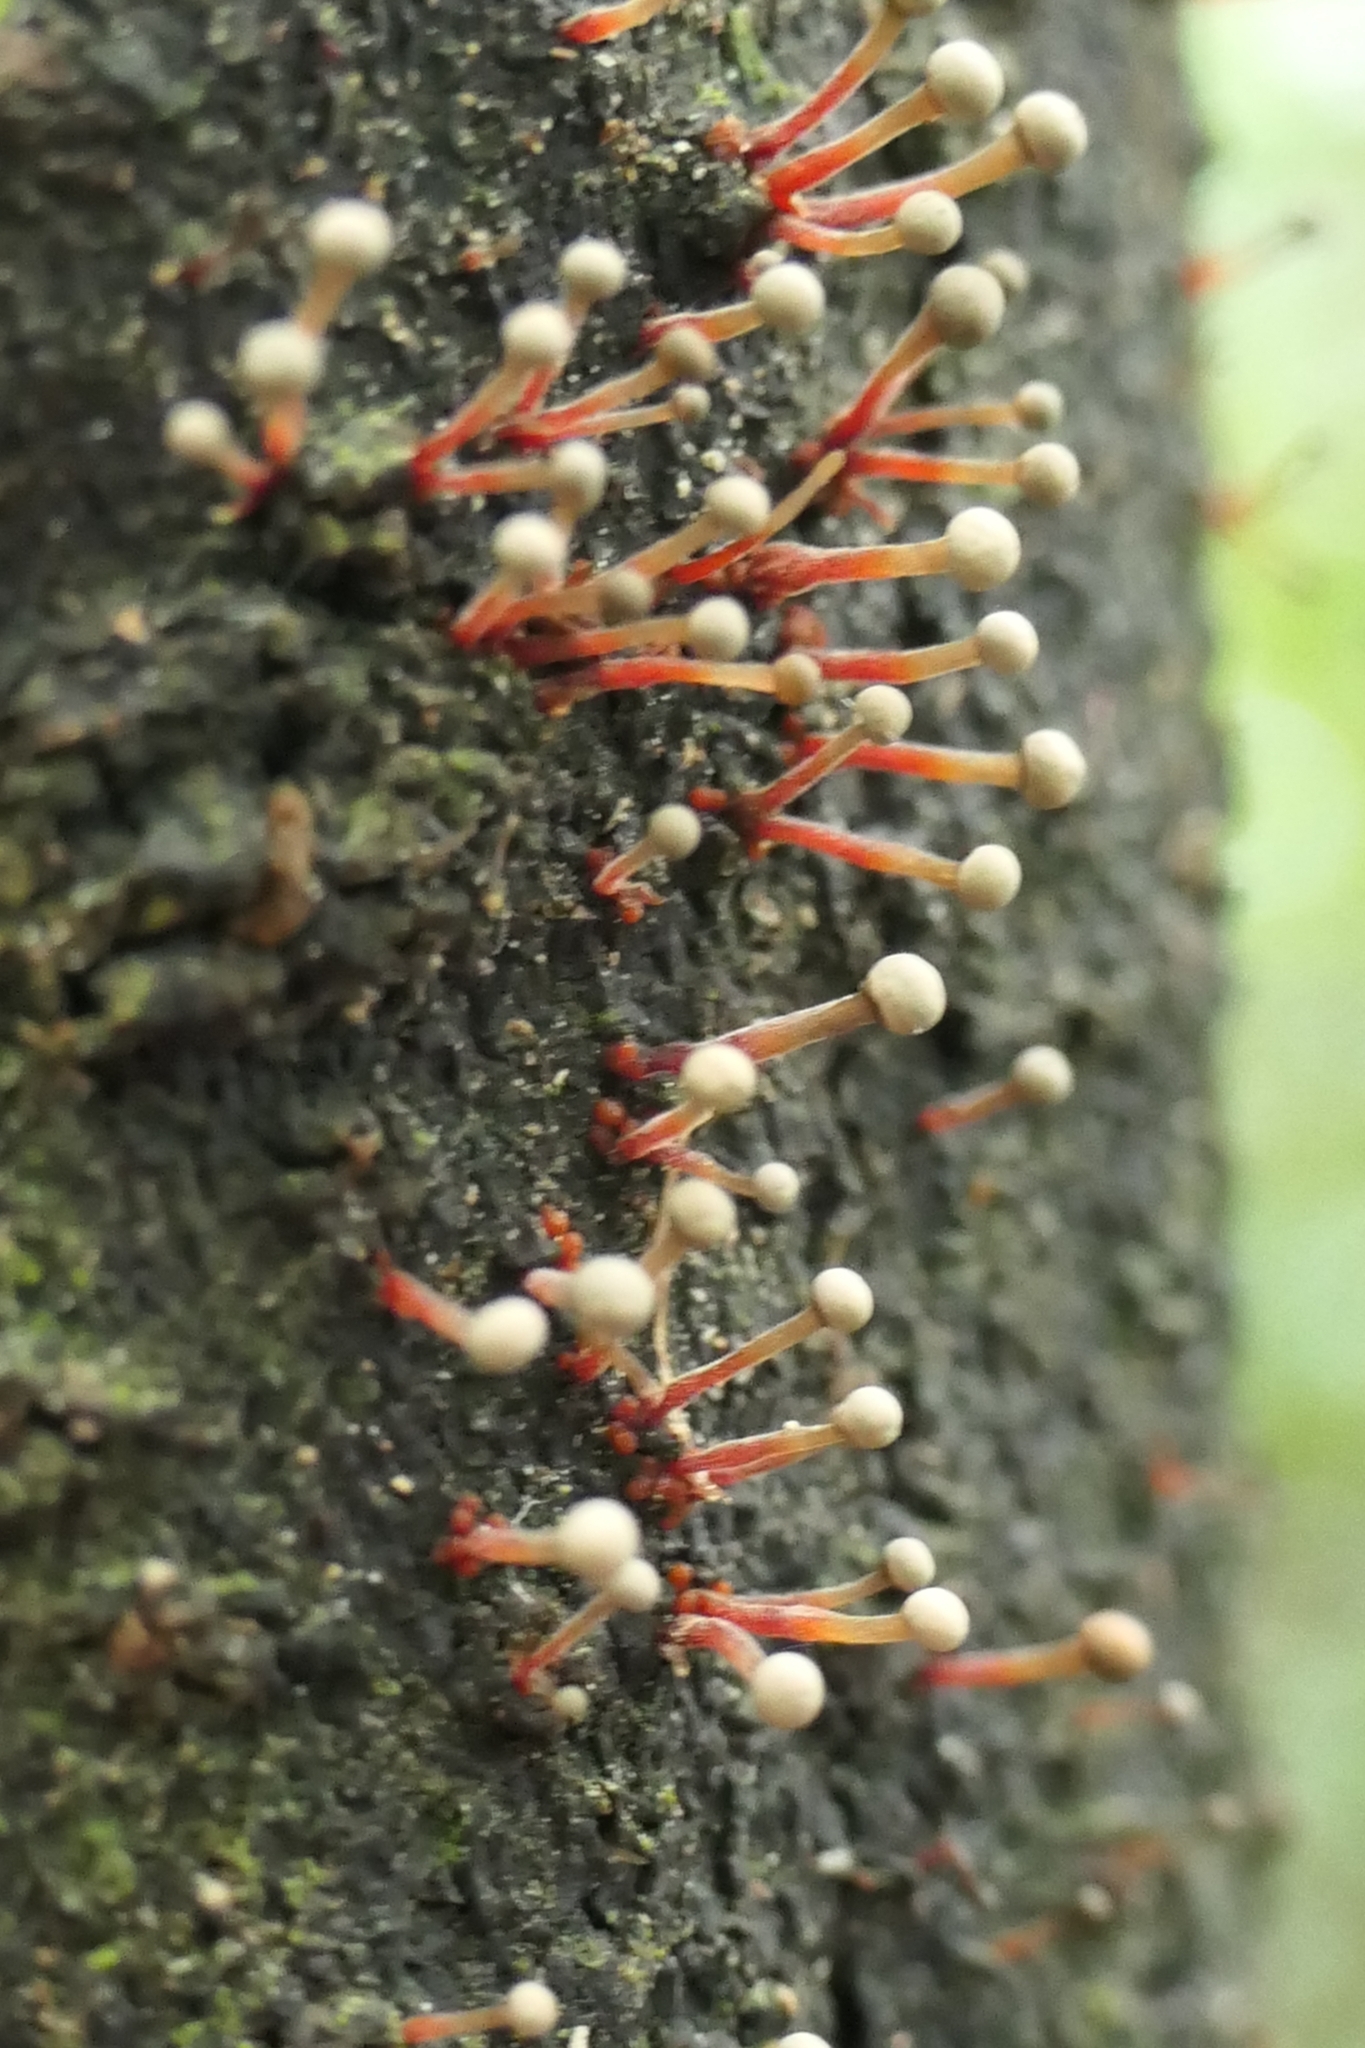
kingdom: Fungi
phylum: Ascomycota
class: Sordariomycetes
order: Hypocreales
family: Nectriaceae
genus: Murinectria
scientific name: Murinectria polythalama
